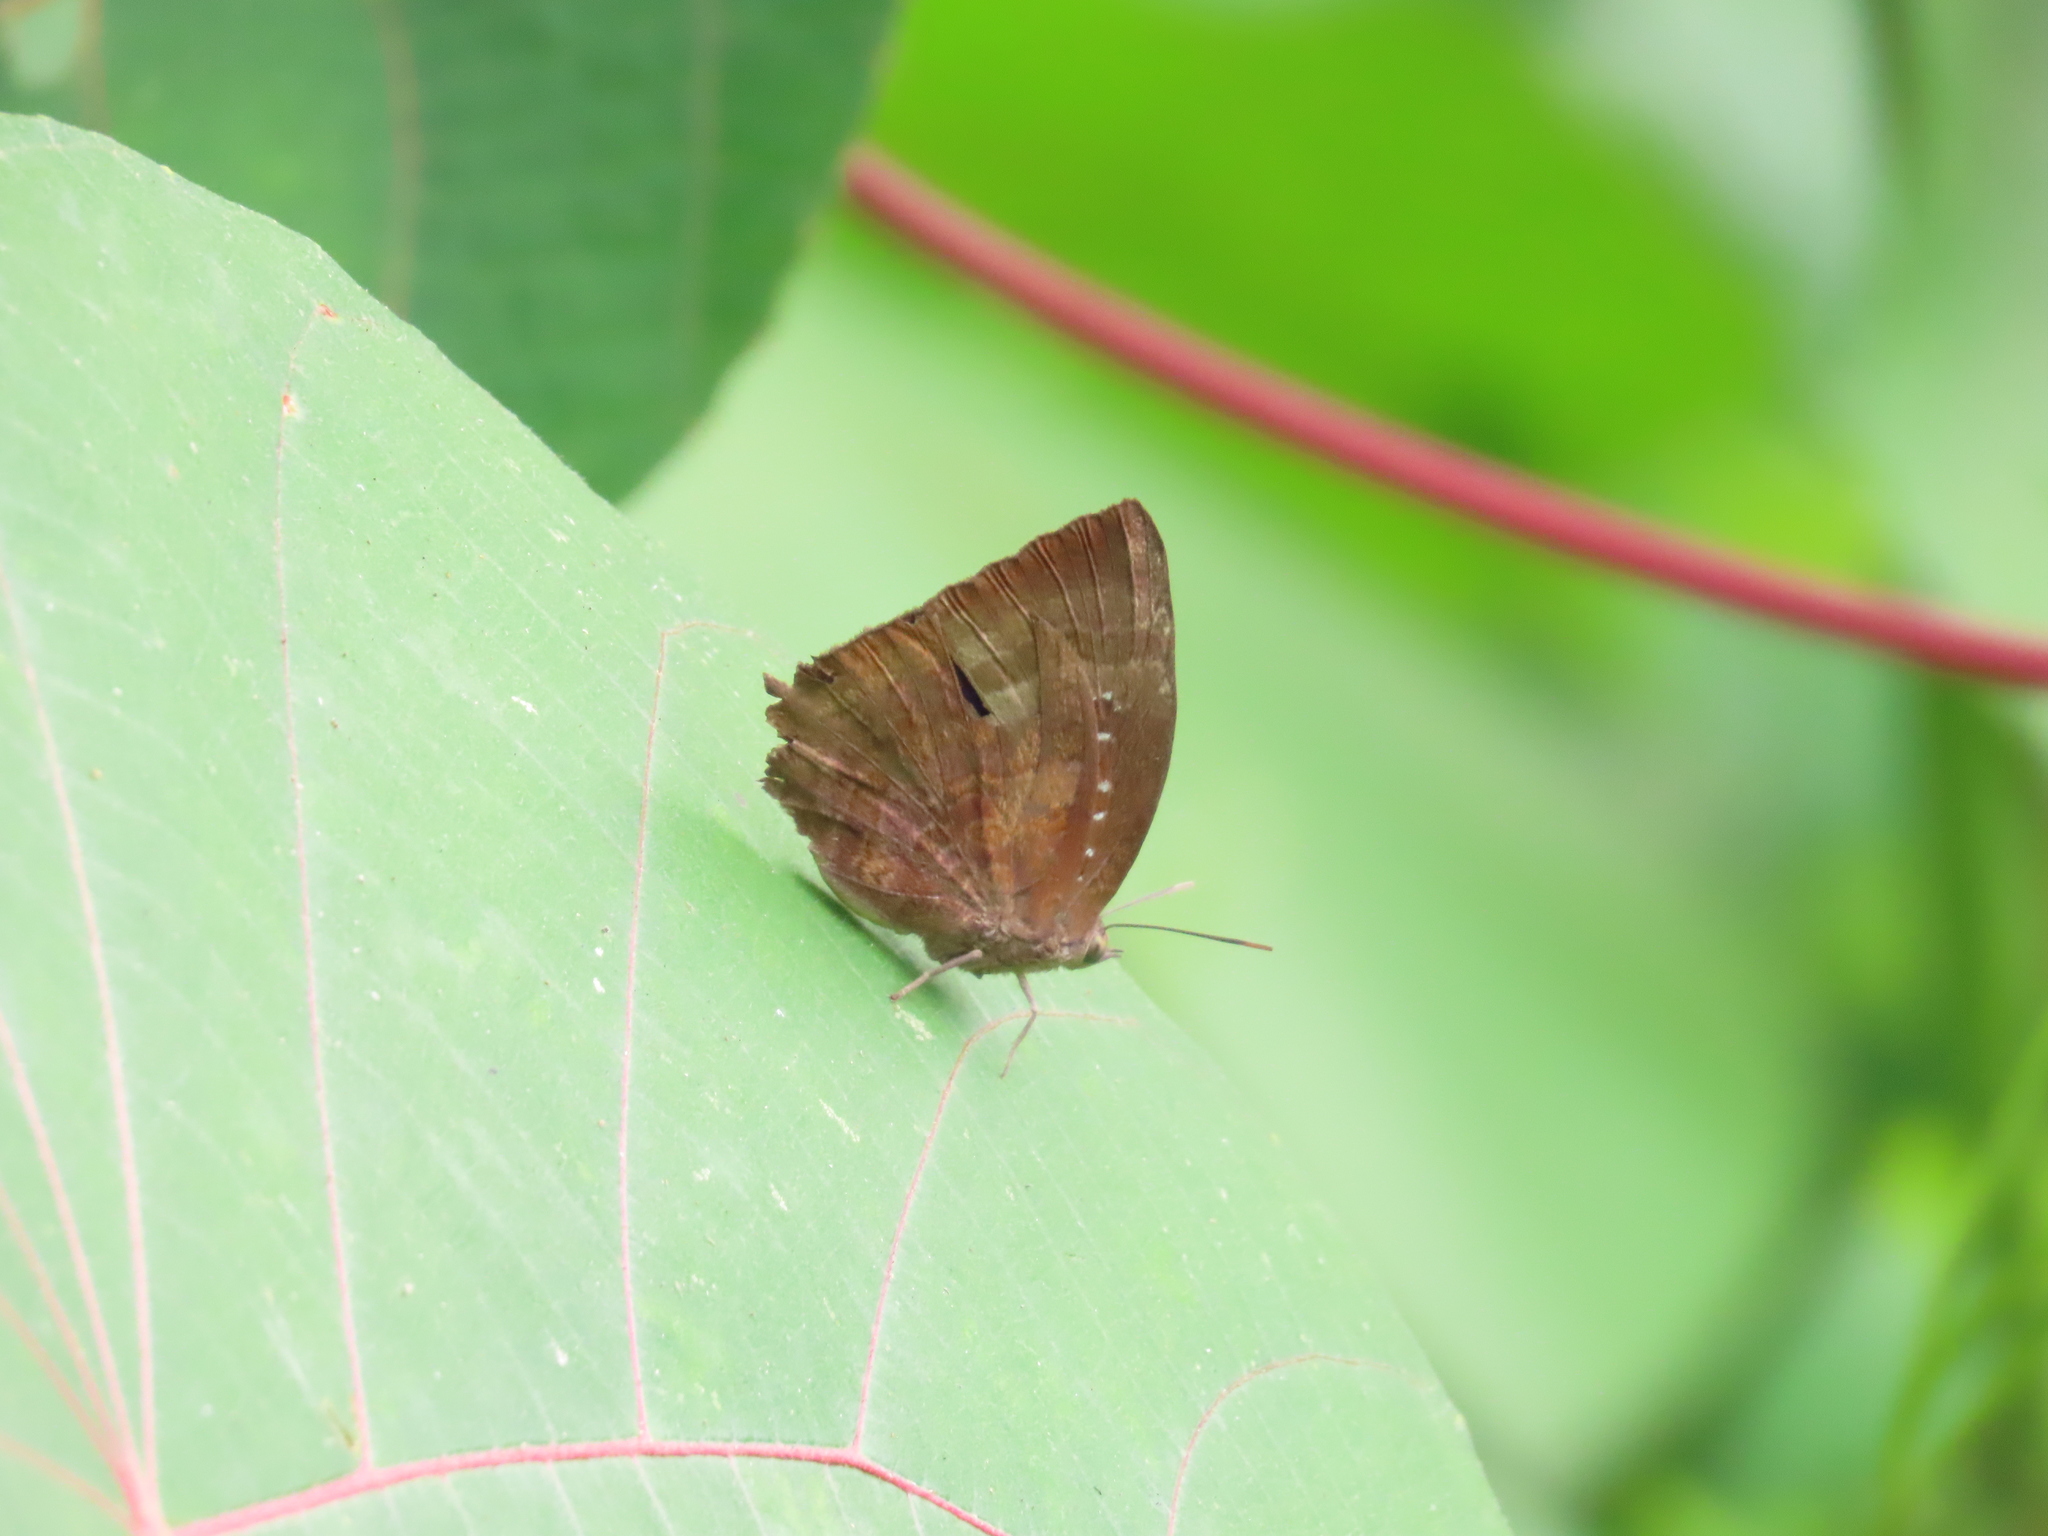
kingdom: Animalia
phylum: Arthropoda
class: Insecta
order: Lepidoptera
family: Lycaenidae
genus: Arhopala
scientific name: Arhopala centaurus
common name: Dull oak-blue
